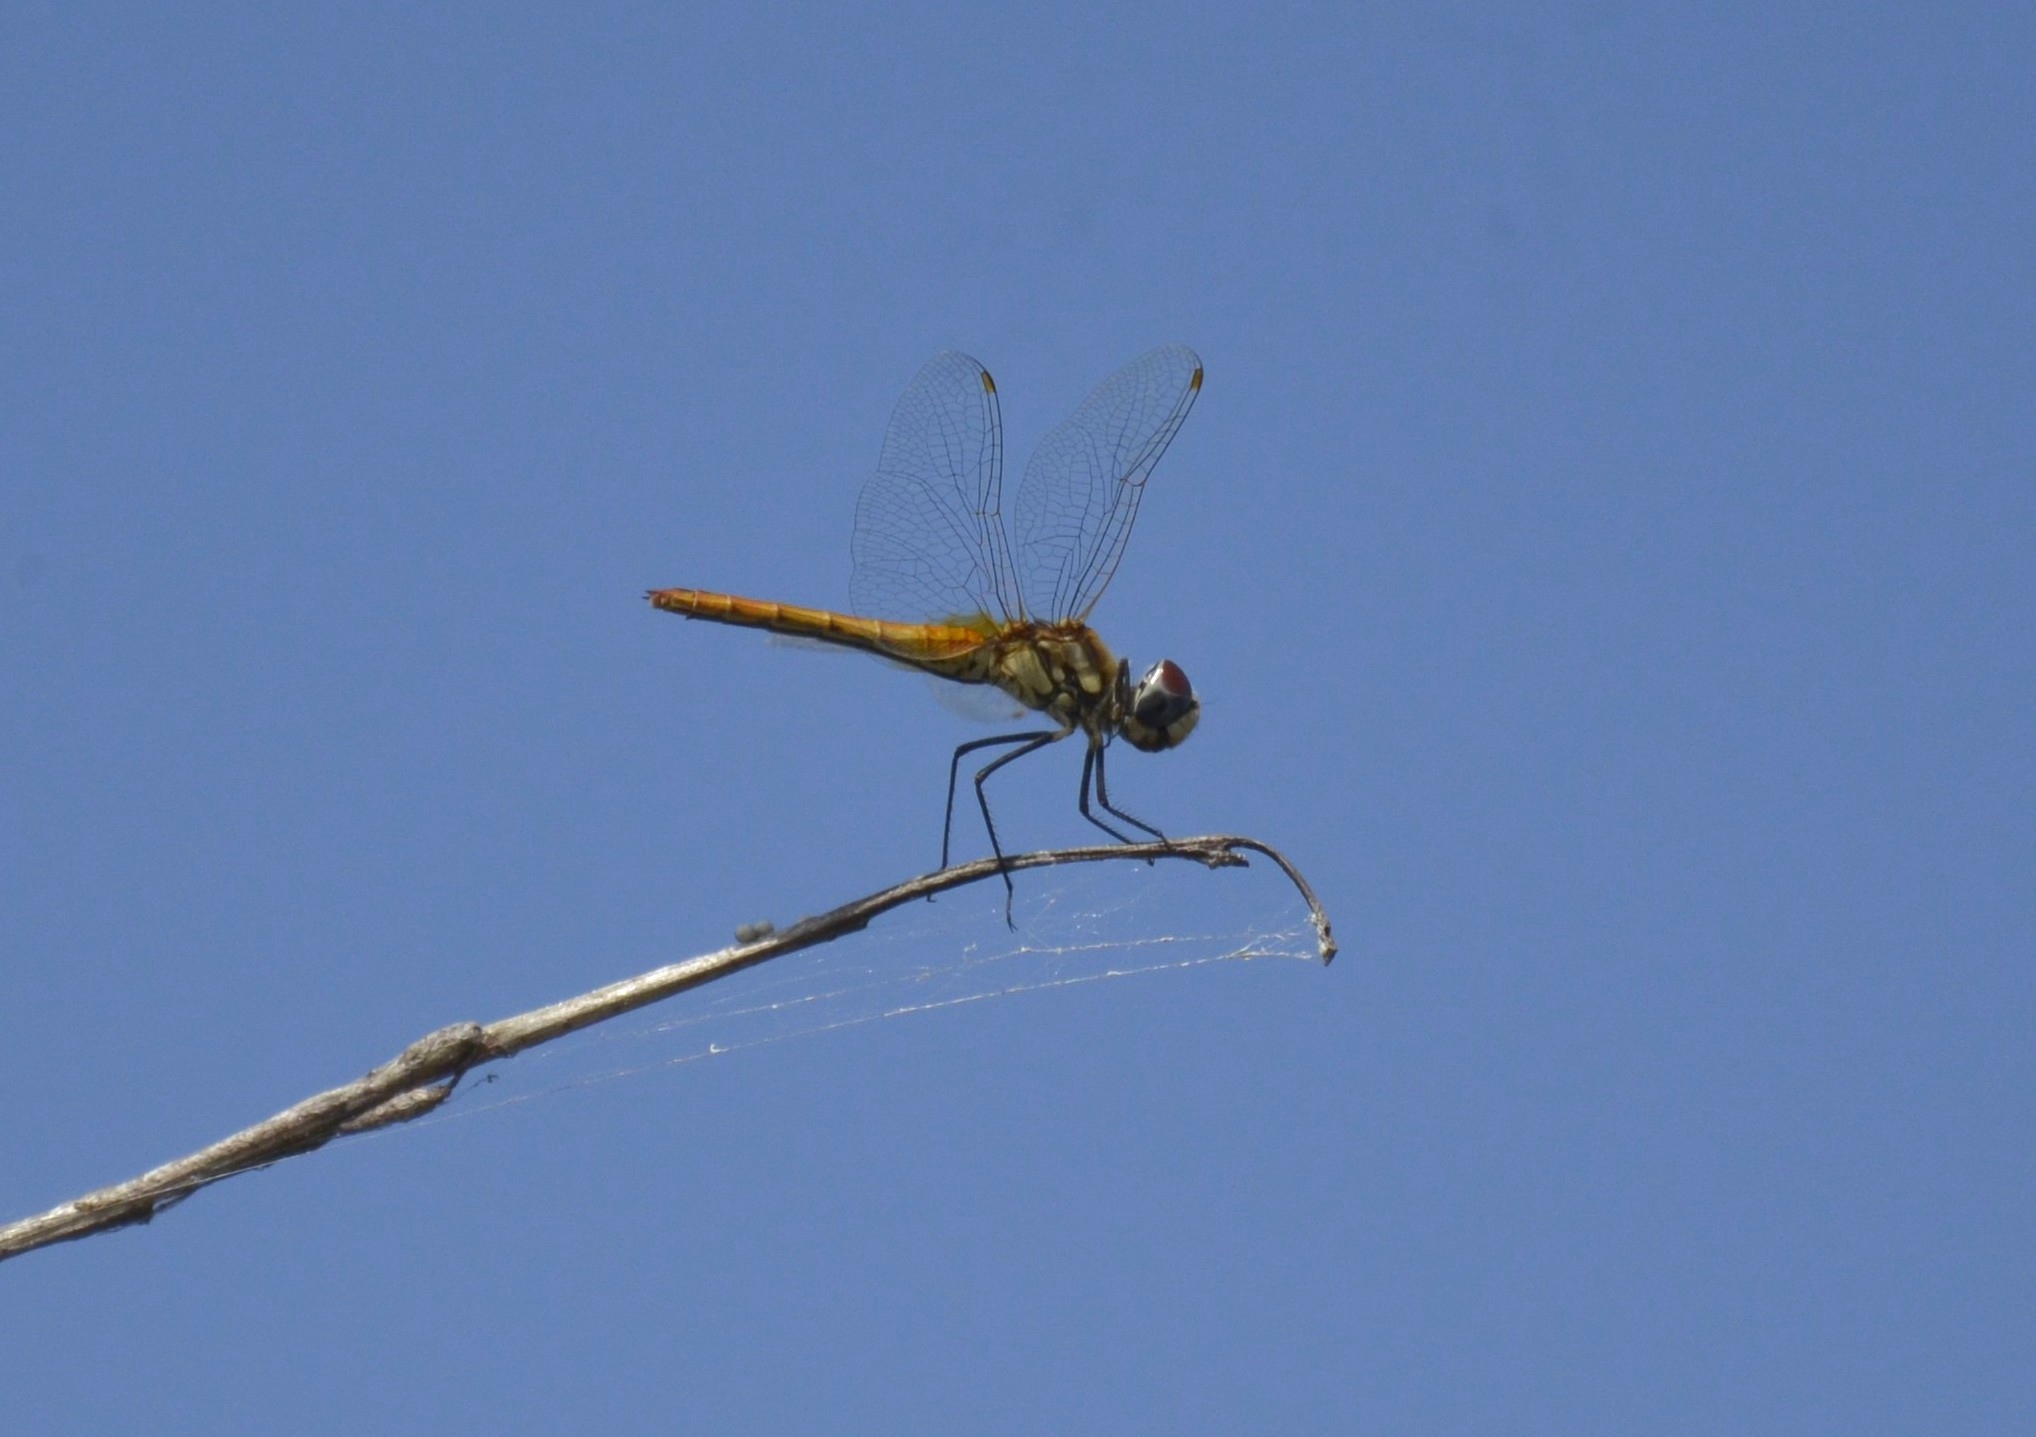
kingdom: Animalia
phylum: Arthropoda
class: Insecta
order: Odonata
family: Libellulidae
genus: Macrodiplax
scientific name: Macrodiplax cora
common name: Coastal glider
